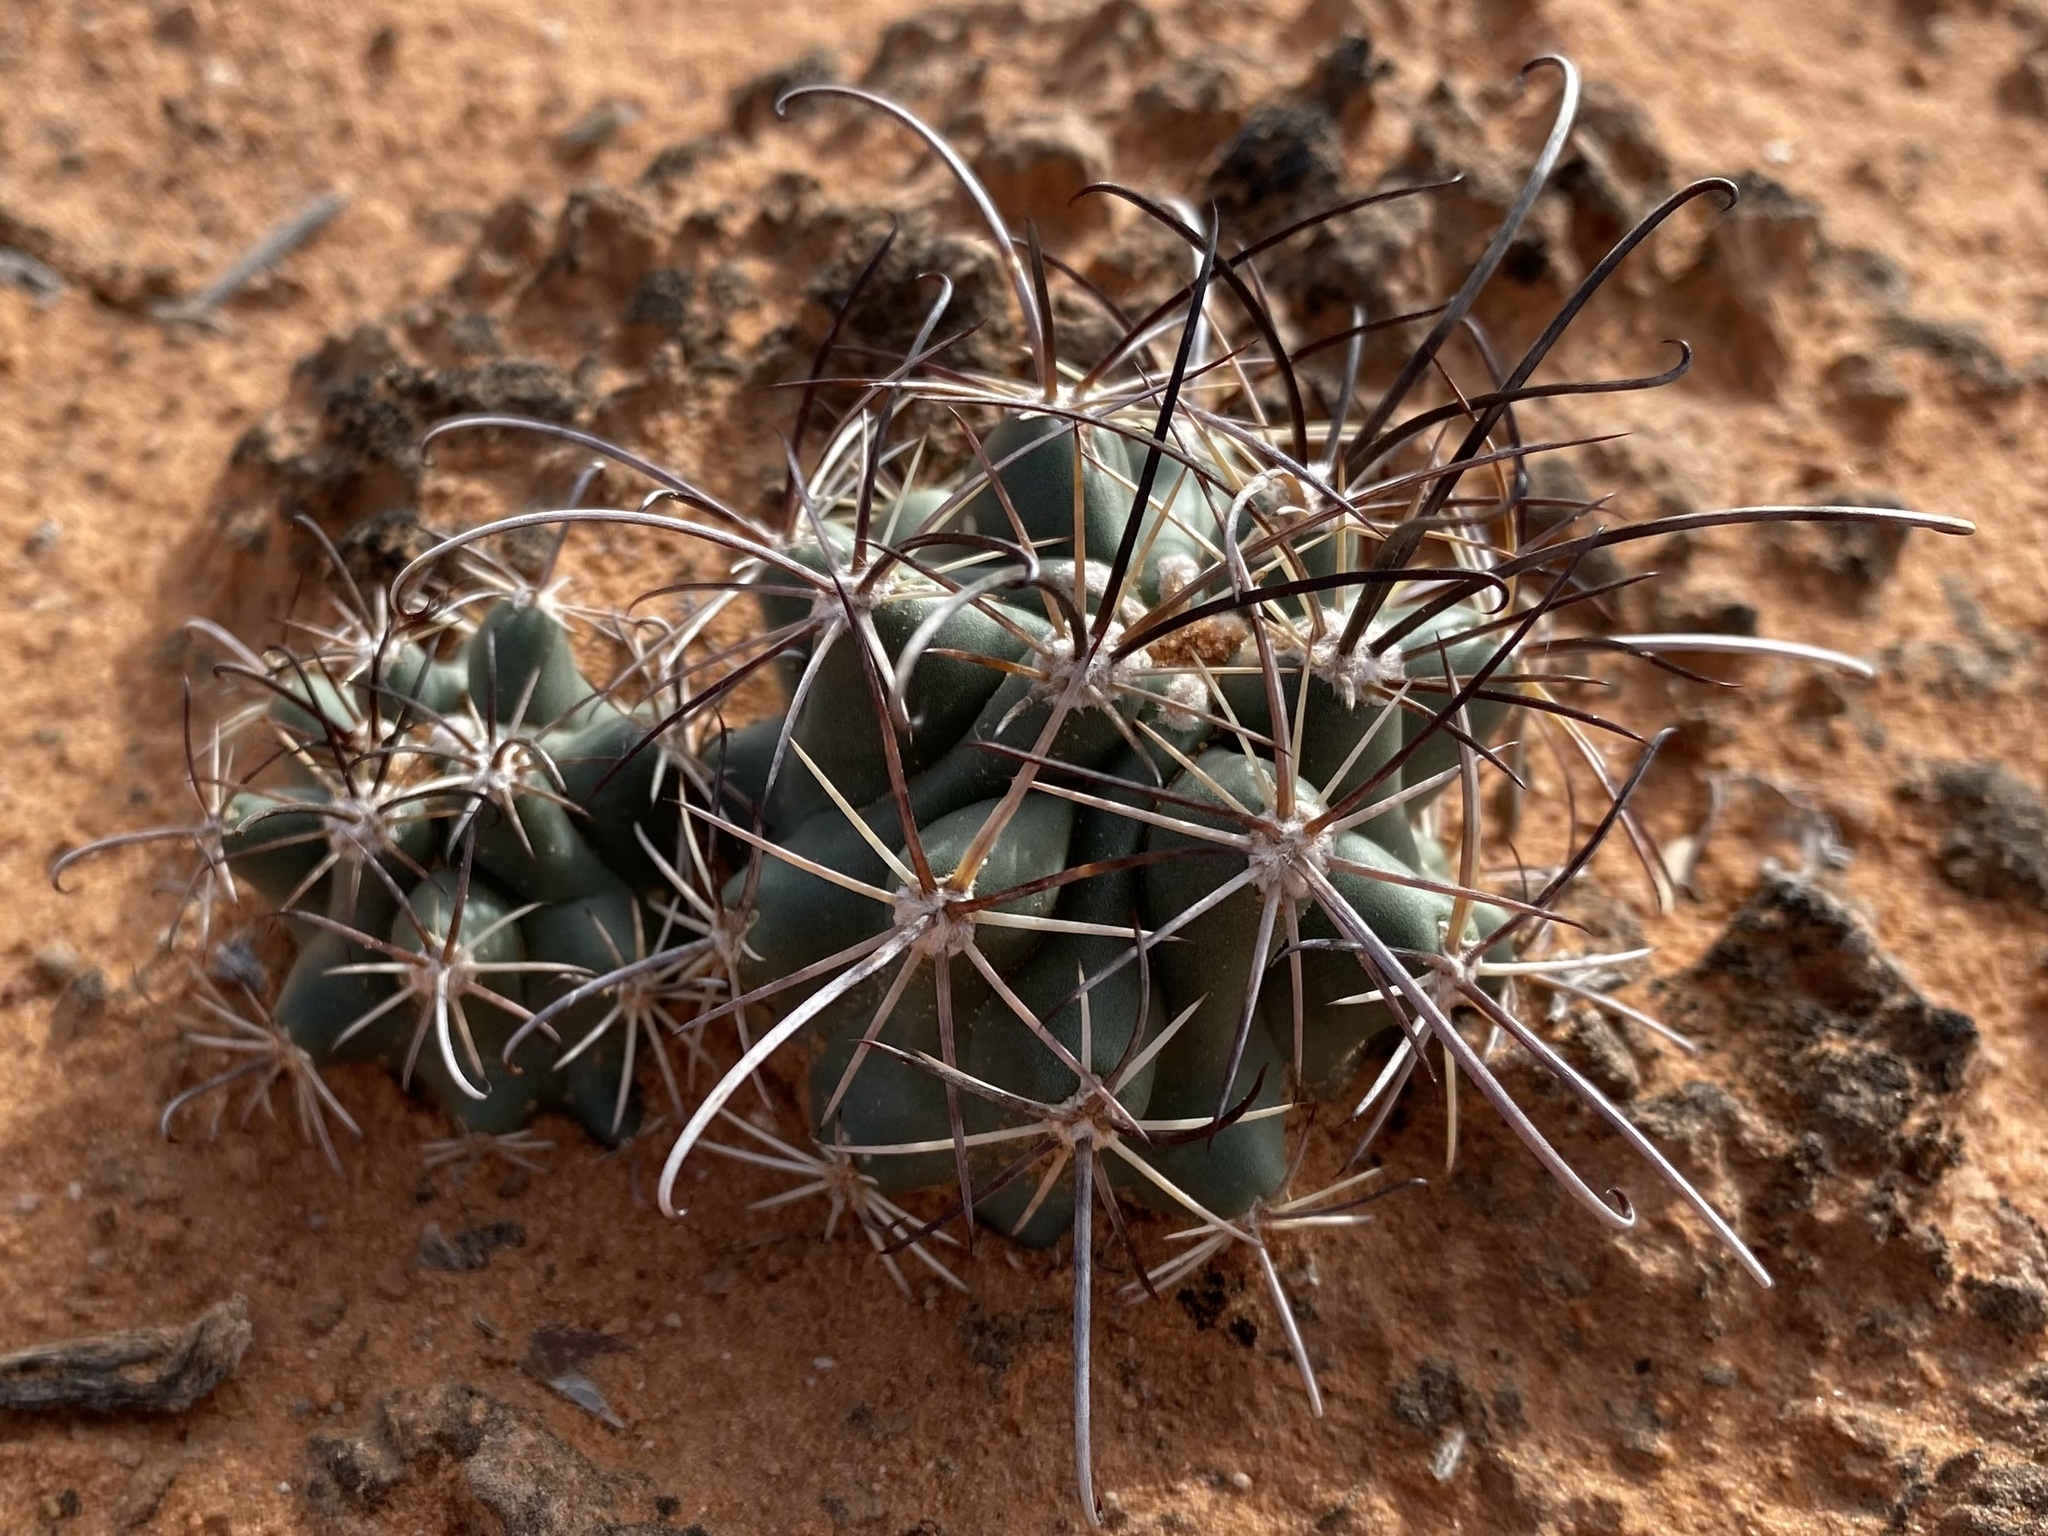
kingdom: Plantae
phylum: Tracheophyta
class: Magnoliopsida
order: Caryophyllales
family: Cactaceae
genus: Sclerocactus
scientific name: Sclerocactus parviflorus
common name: Small-flower fishhook cactus
